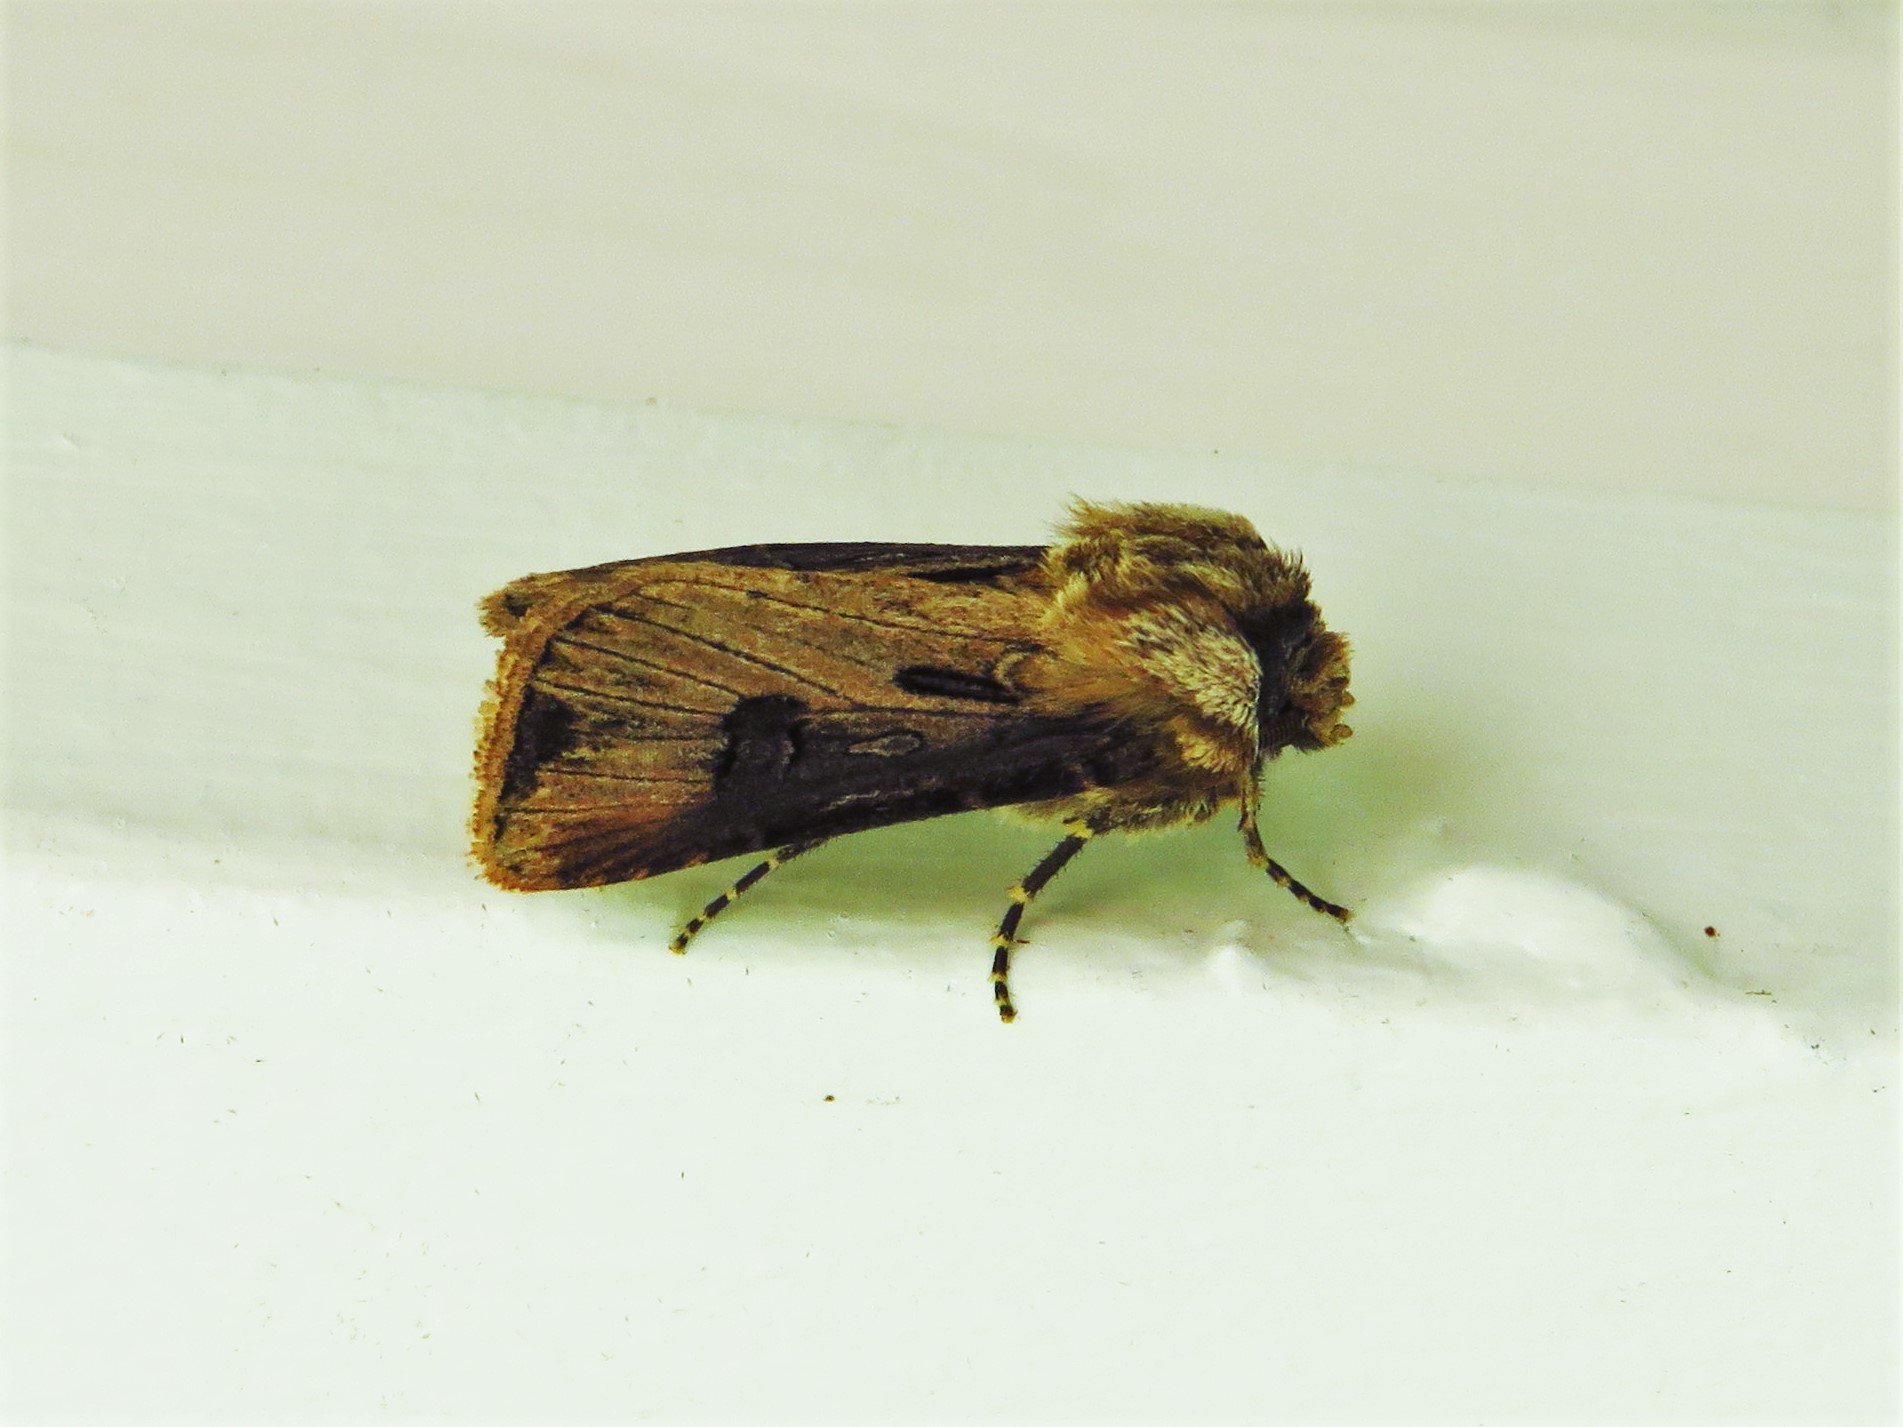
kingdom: Animalia
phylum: Arthropoda
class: Insecta
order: Lepidoptera
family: Noctuidae
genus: Agrotis
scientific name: Agrotis venerabilis
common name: Venerable dart
